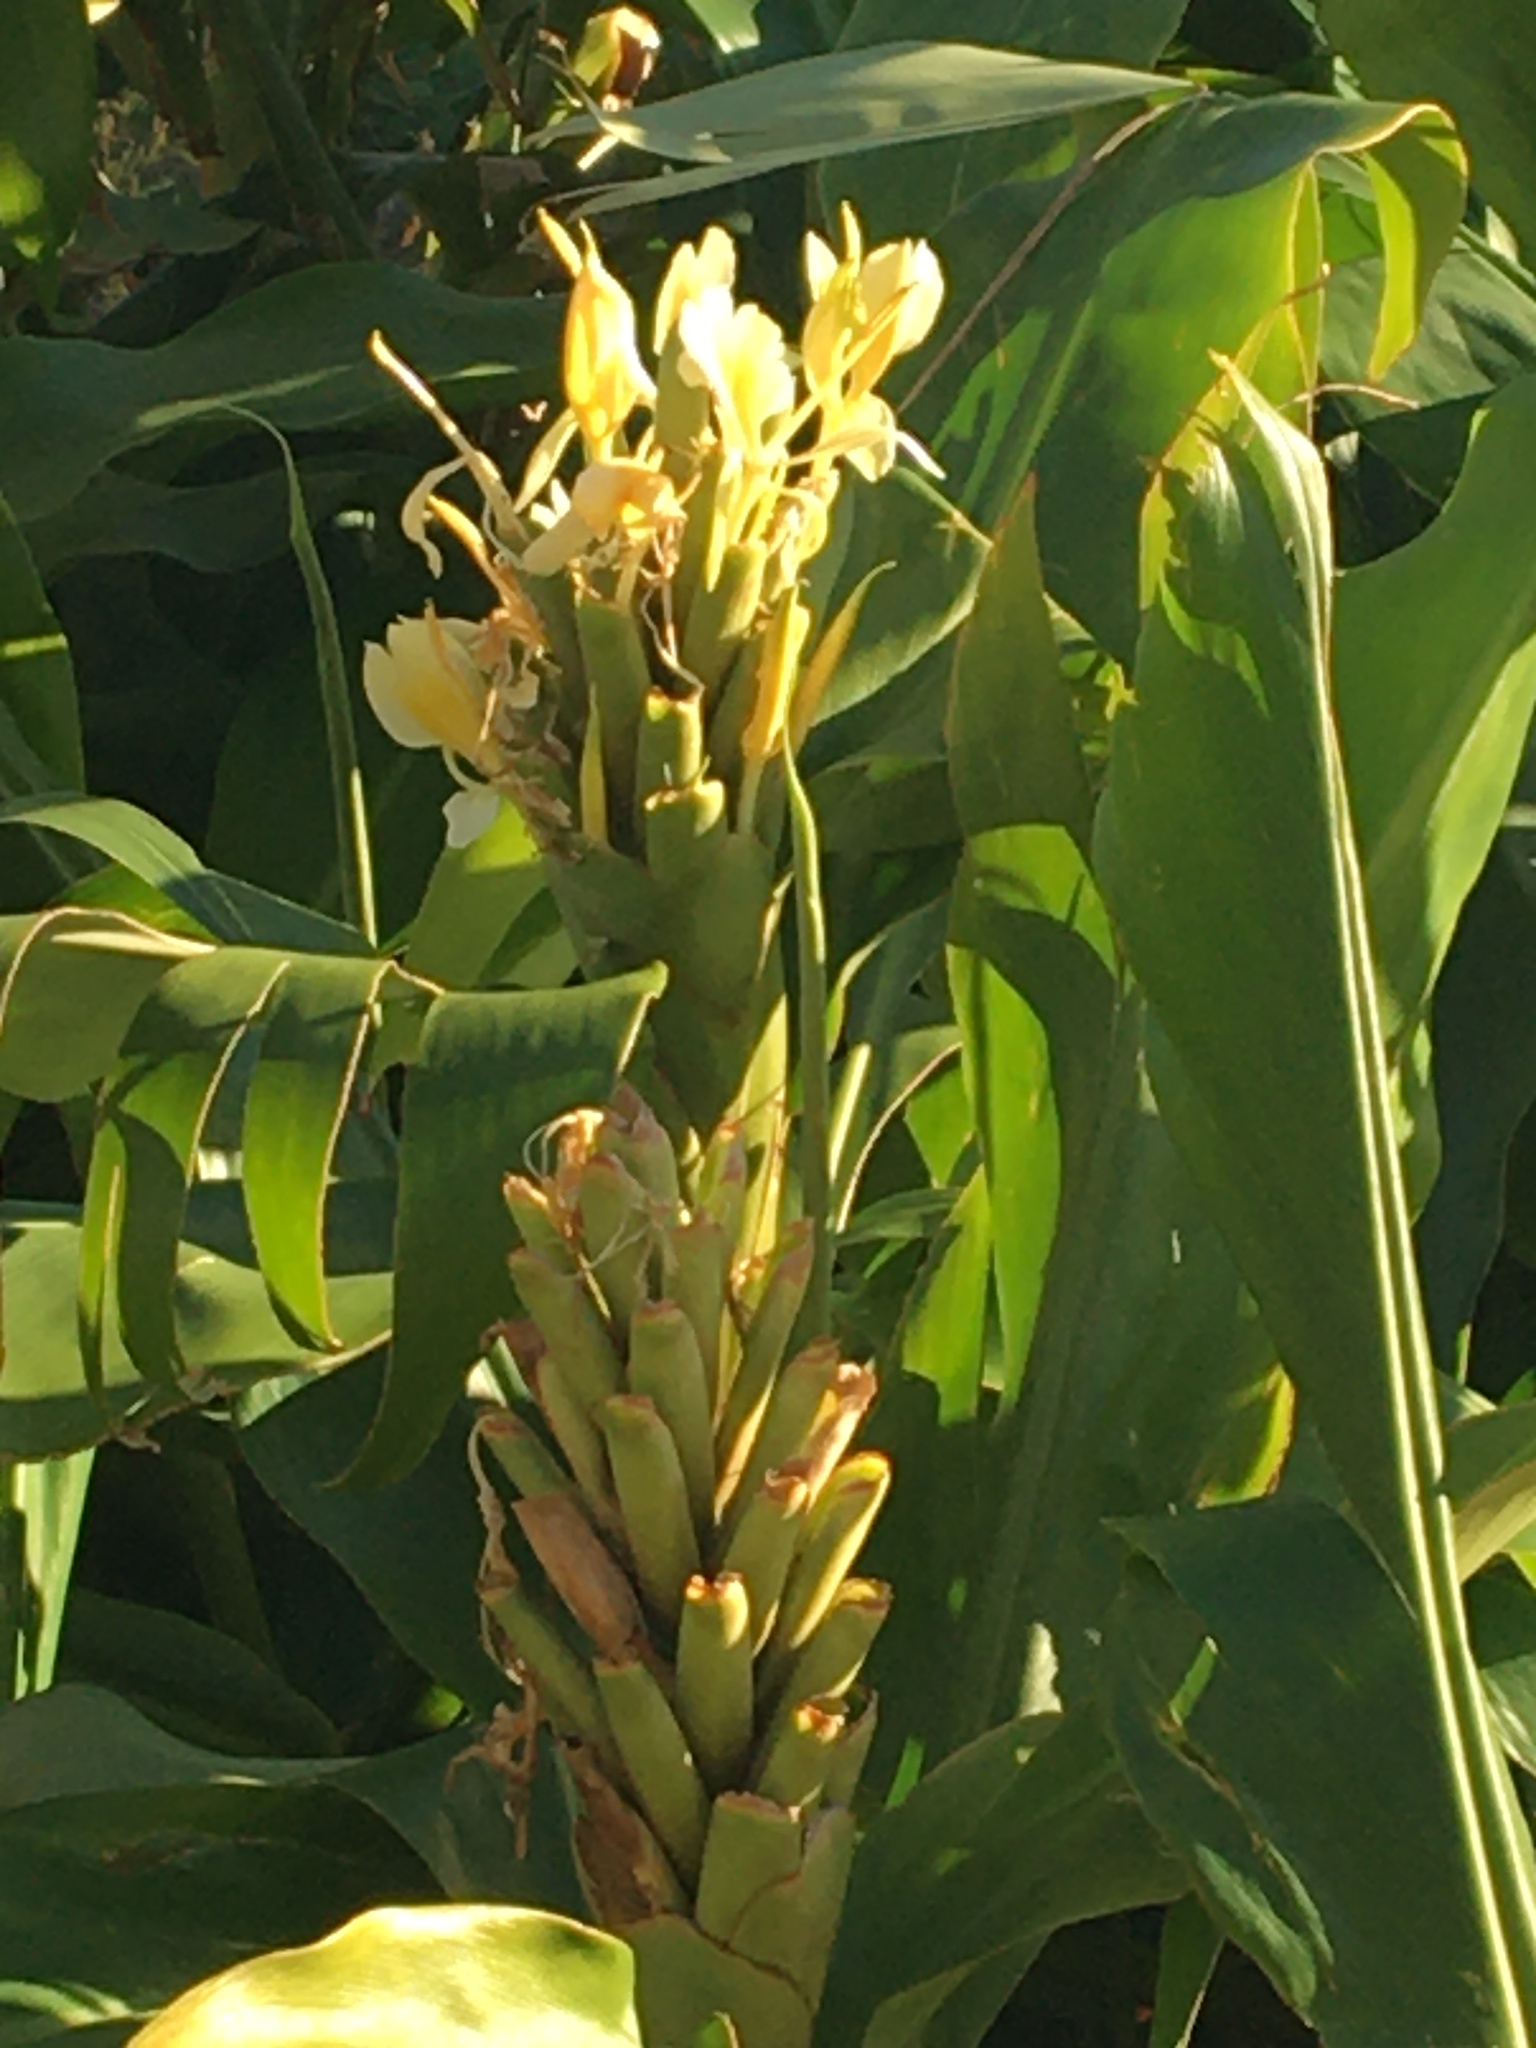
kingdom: Plantae
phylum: Tracheophyta
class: Liliopsida
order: Zingiberales
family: Zingiberaceae
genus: Hedychium
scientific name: Hedychium flavescens
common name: Yellow ginger
